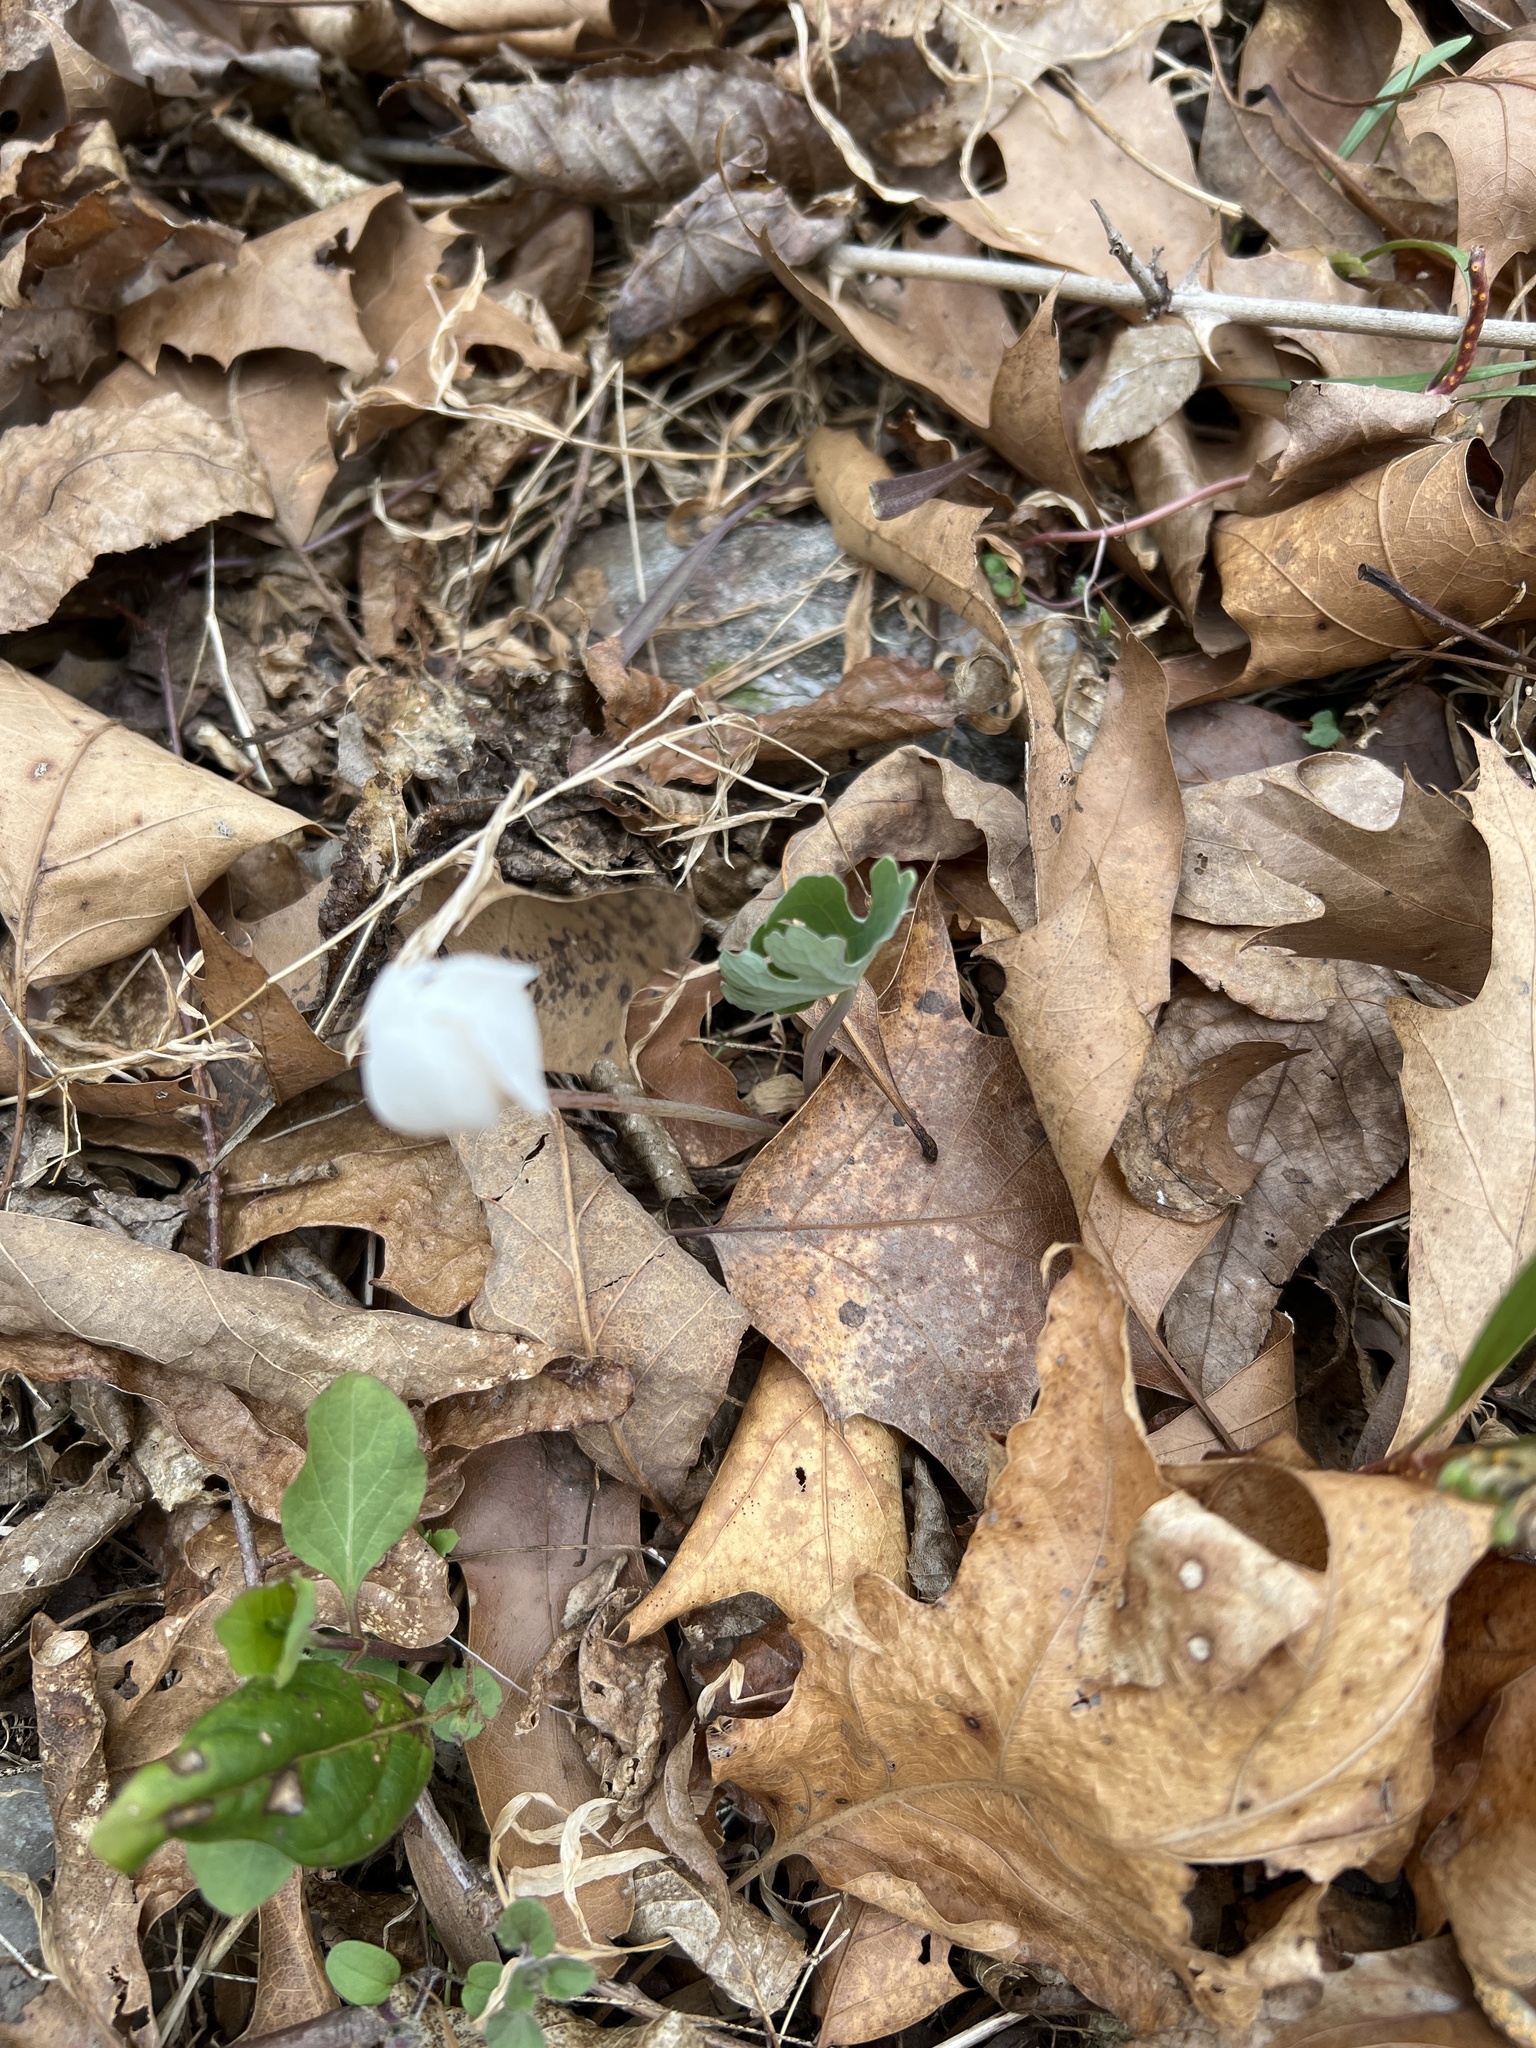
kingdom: Plantae
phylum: Tracheophyta
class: Magnoliopsida
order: Ranunculales
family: Papaveraceae
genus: Sanguinaria
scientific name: Sanguinaria canadensis
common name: Bloodroot
